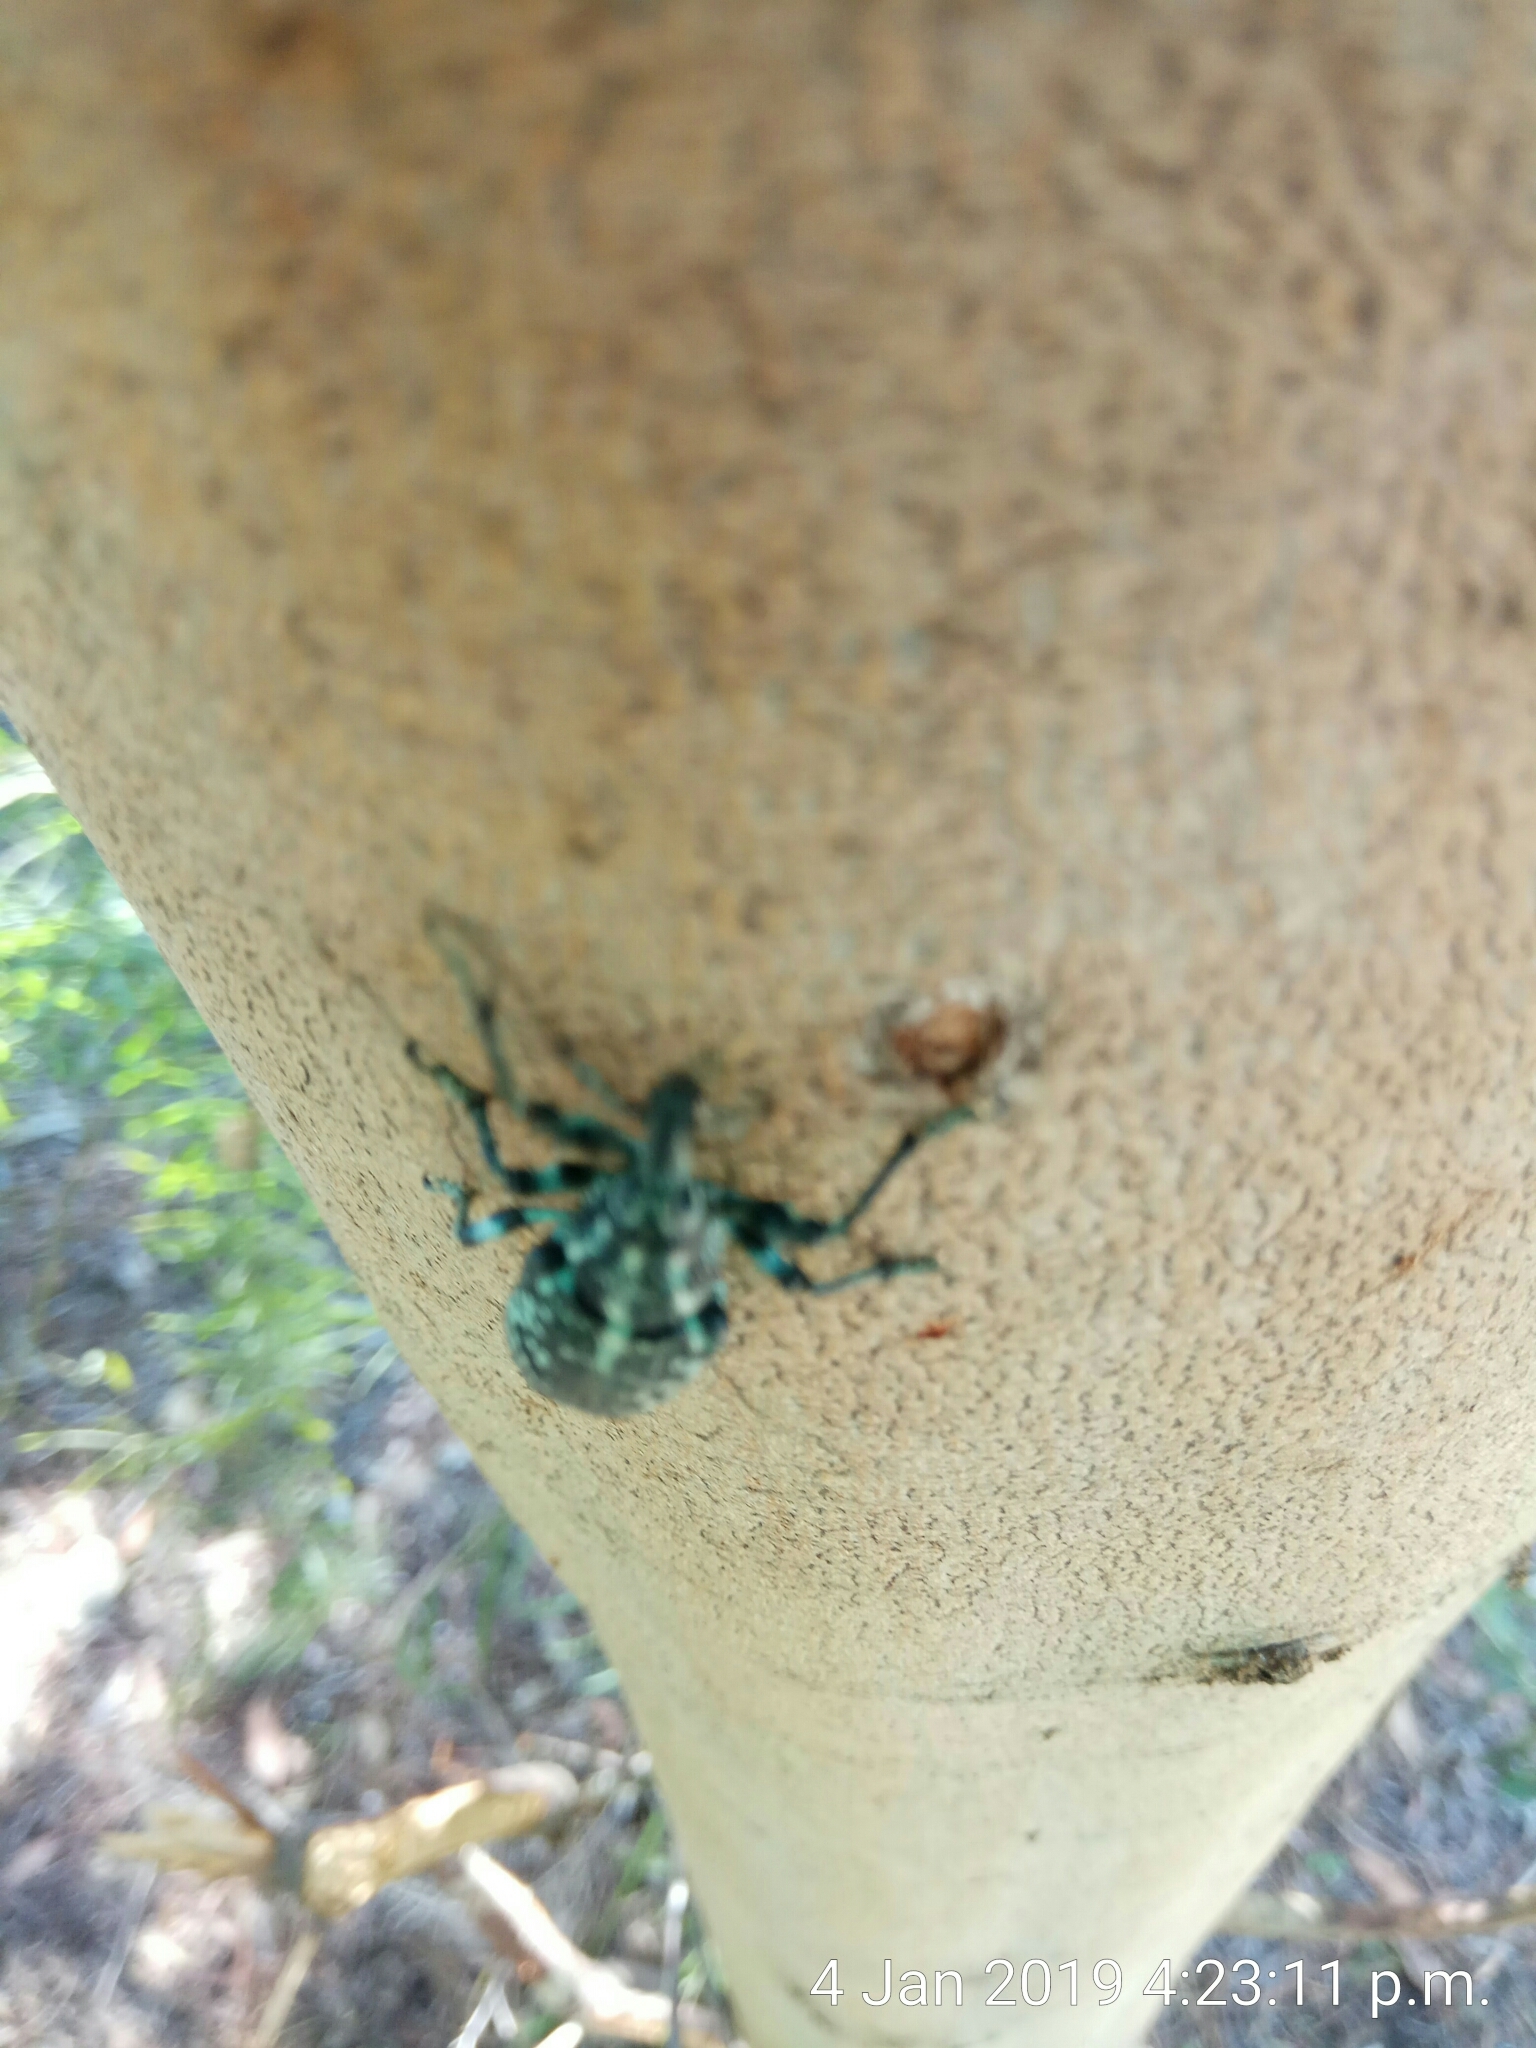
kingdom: Animalia
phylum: Arthropoda
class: Insecta
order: Coleoptera
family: Curculionidae
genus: Chrysolopus
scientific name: Chrysolopus spectabilis
